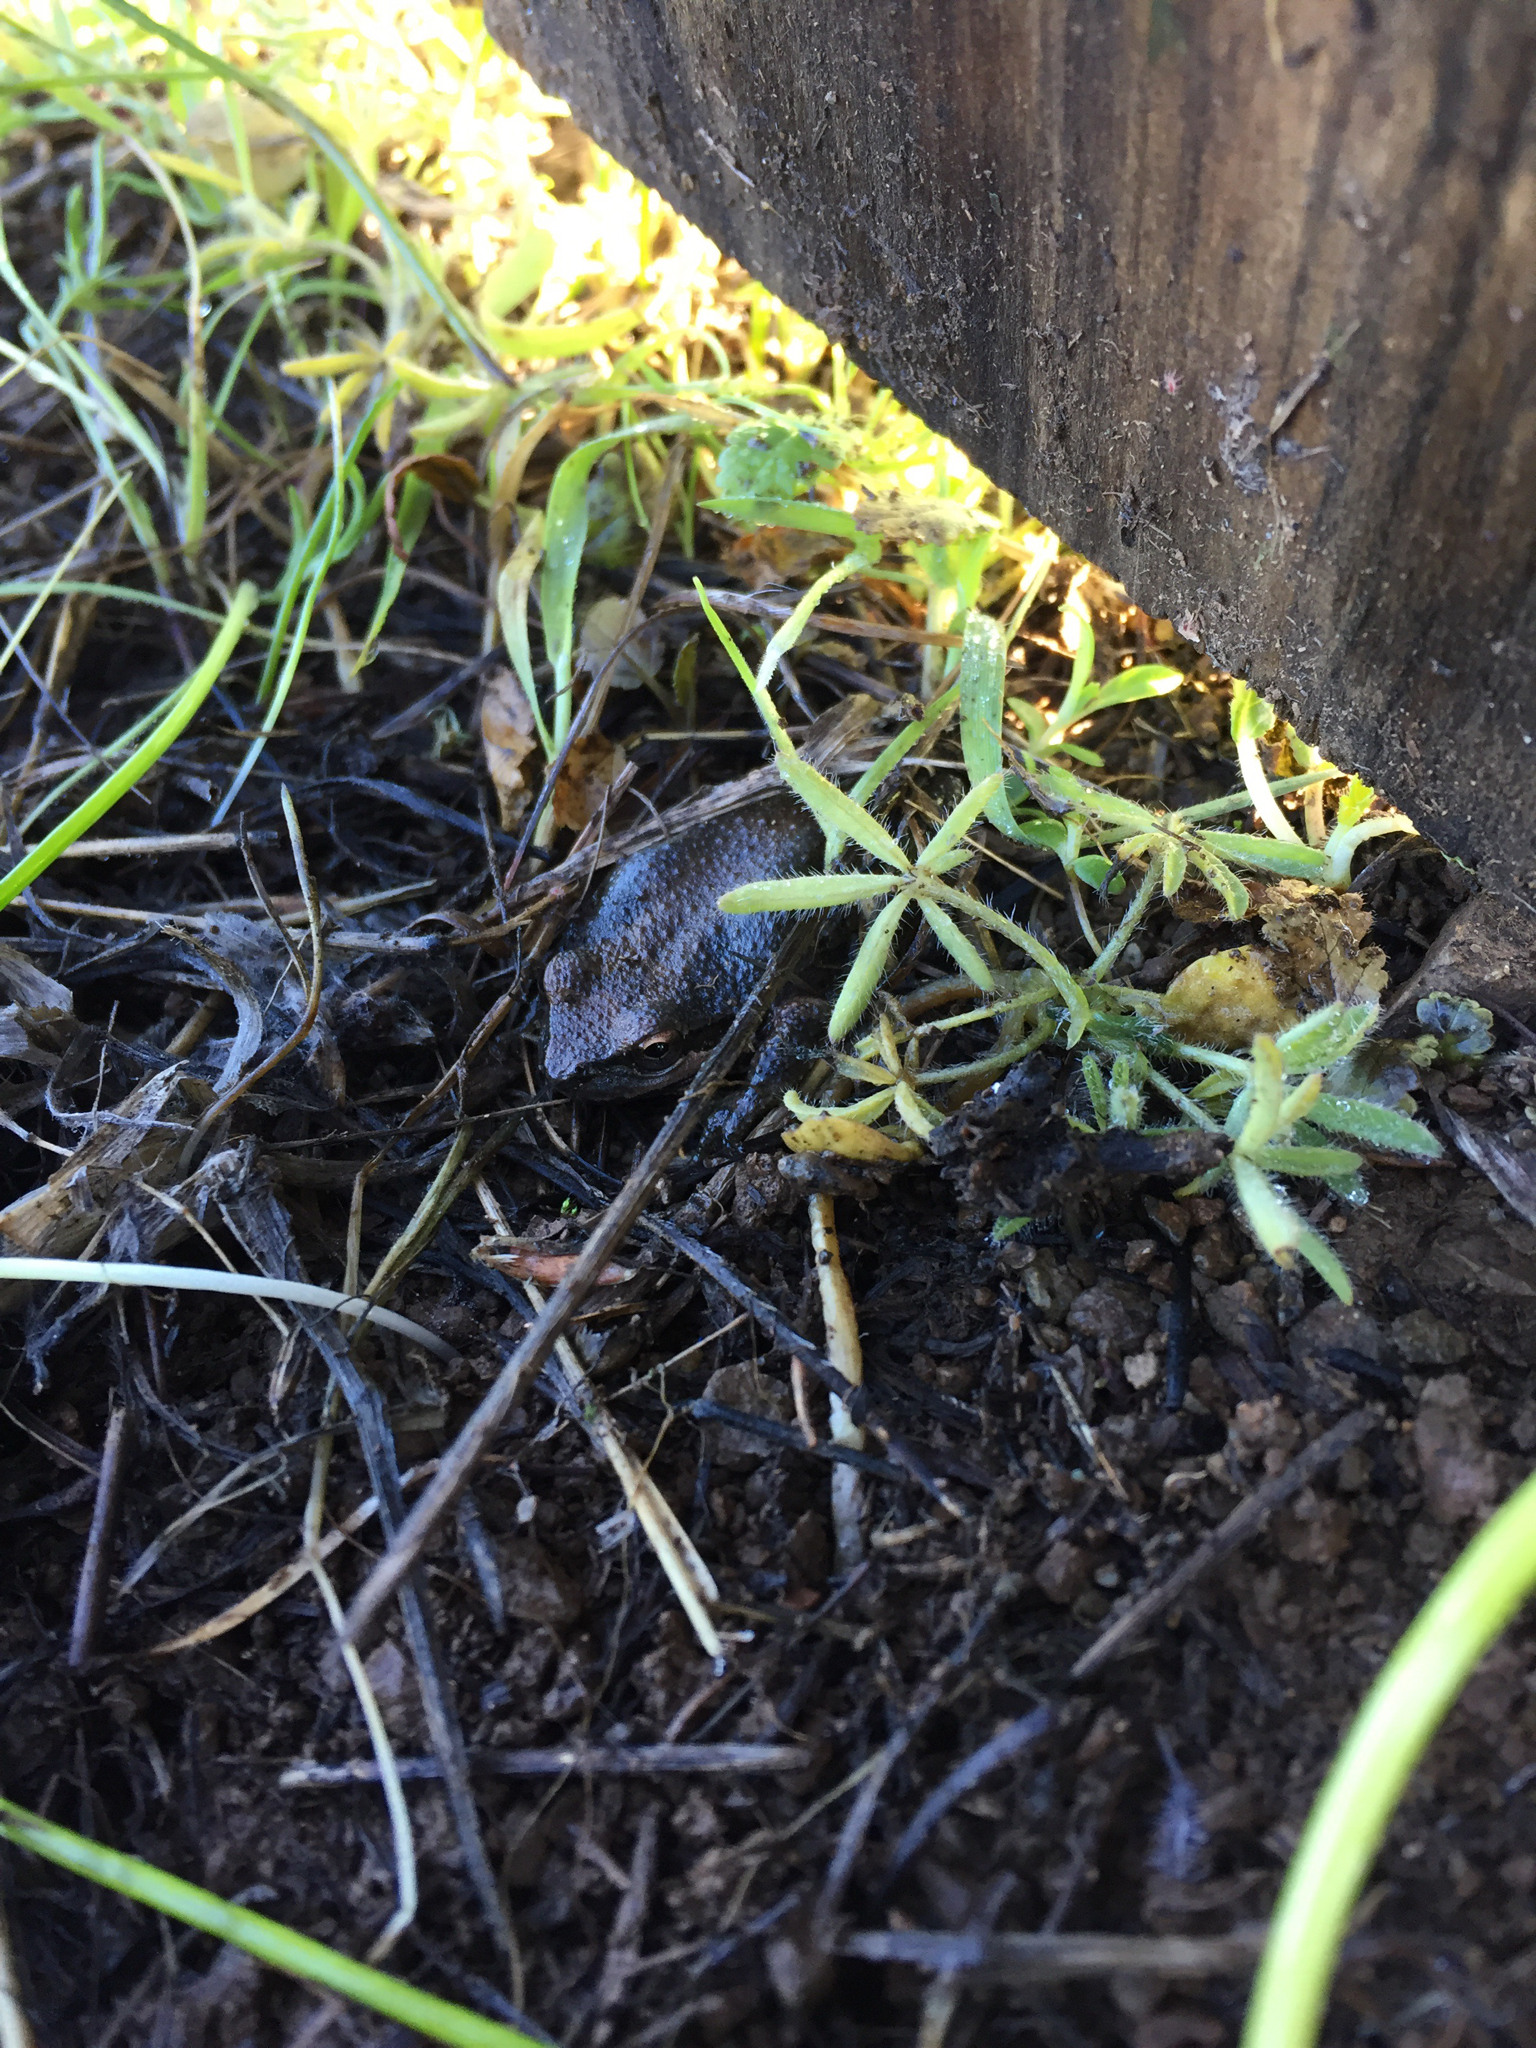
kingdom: Animalia
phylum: Chordata
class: Amphibia
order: Anura
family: Hylidae
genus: Pseudacris
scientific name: Pseudacris regilla
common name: Pacific chorus frog
